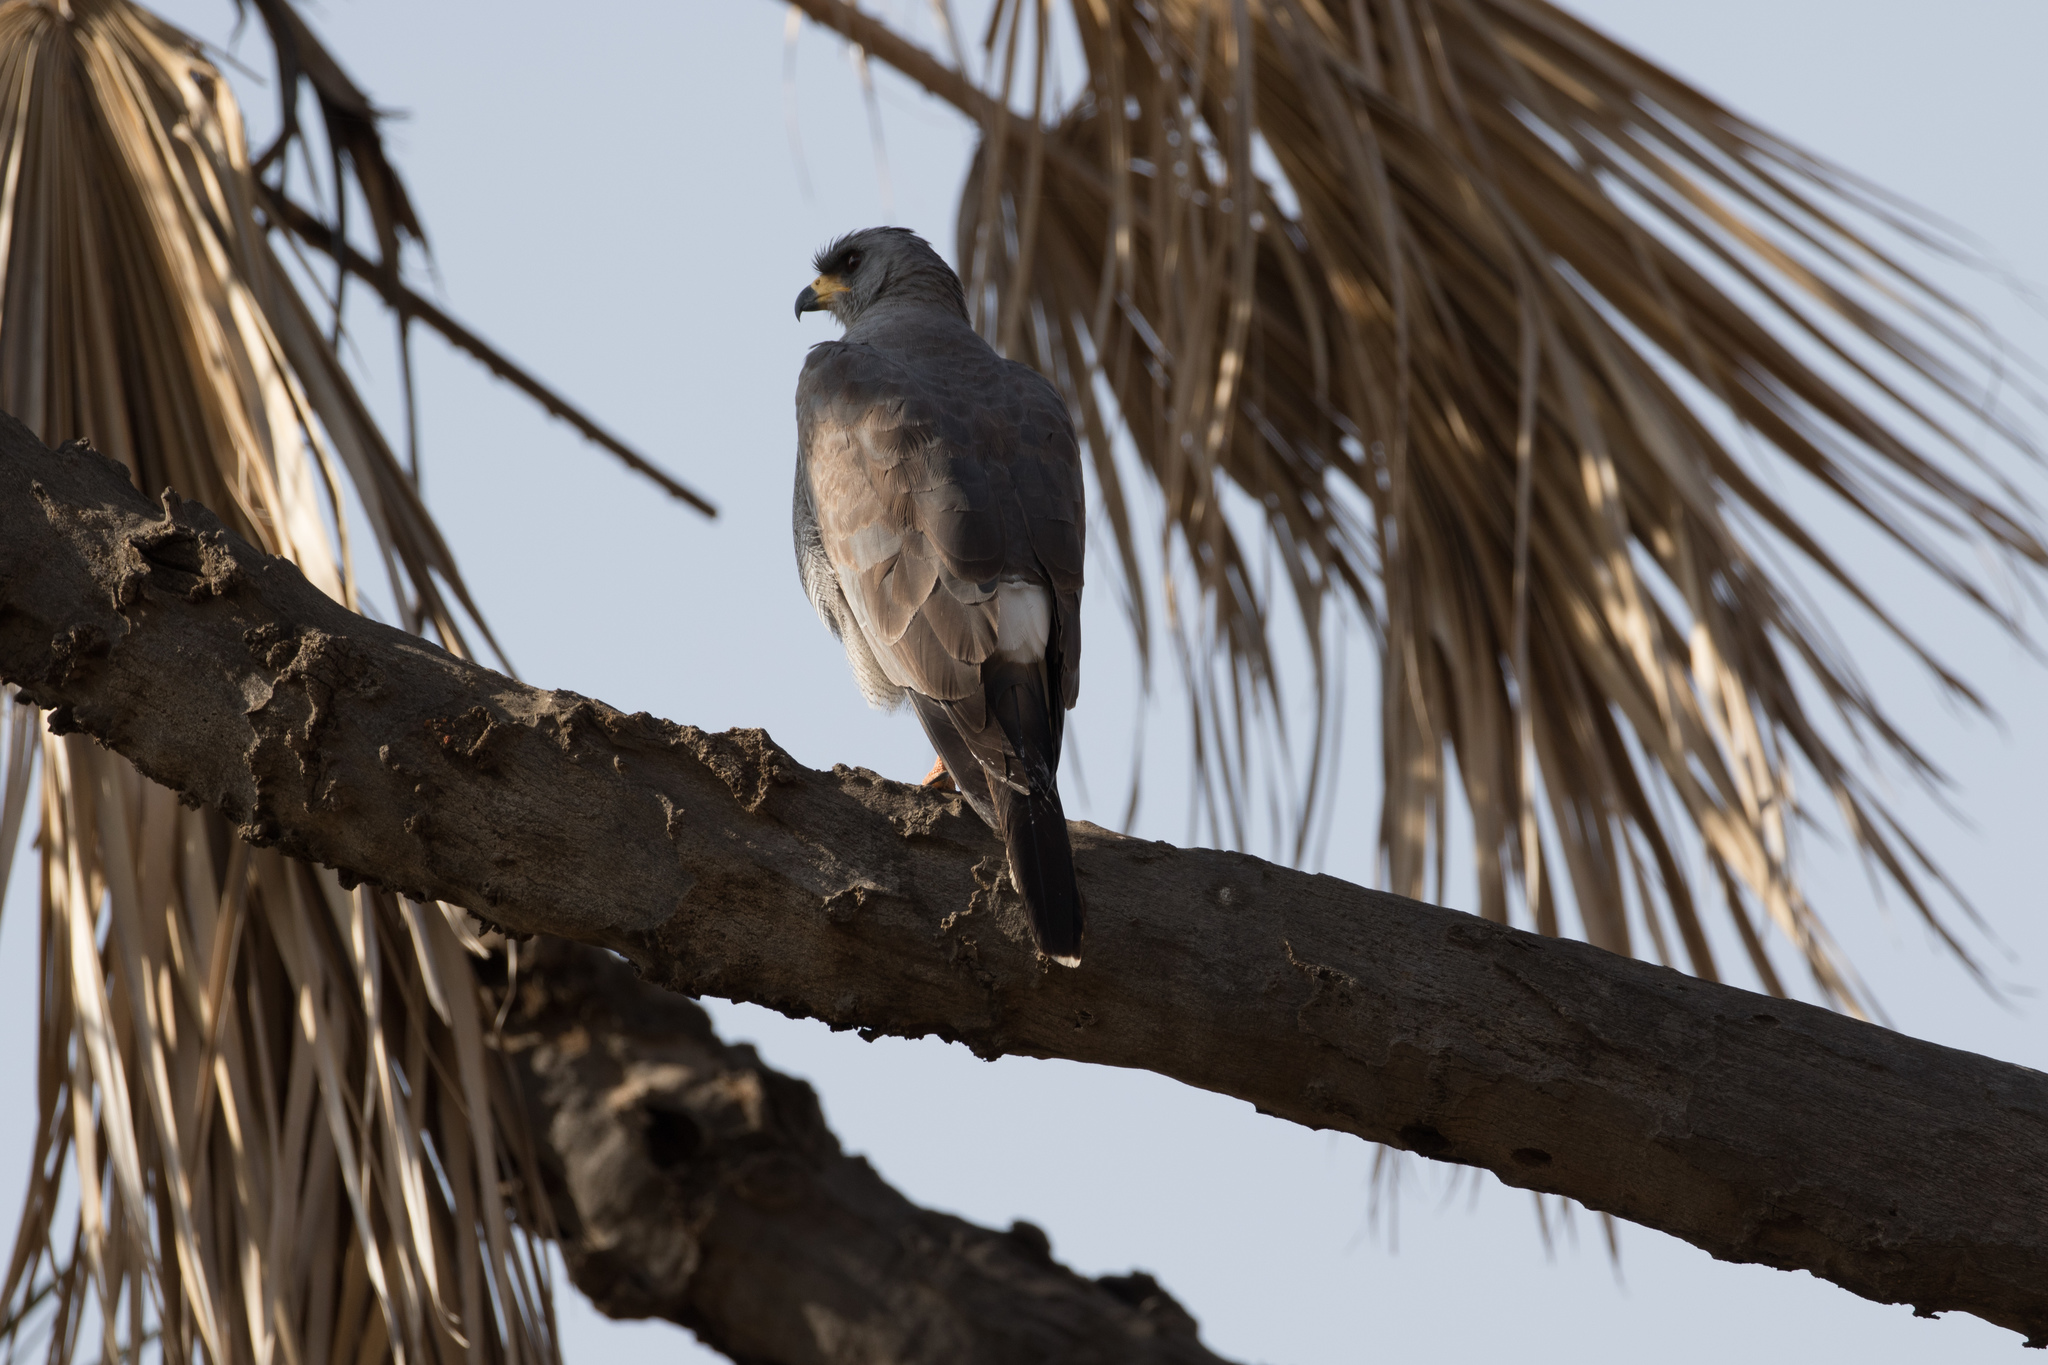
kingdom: Animalia
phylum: Chordata
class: Aves
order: Accipitriformes
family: Accipitridae
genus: Melierax
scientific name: Melierax poliopterus
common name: Eastern chanting goshawk
